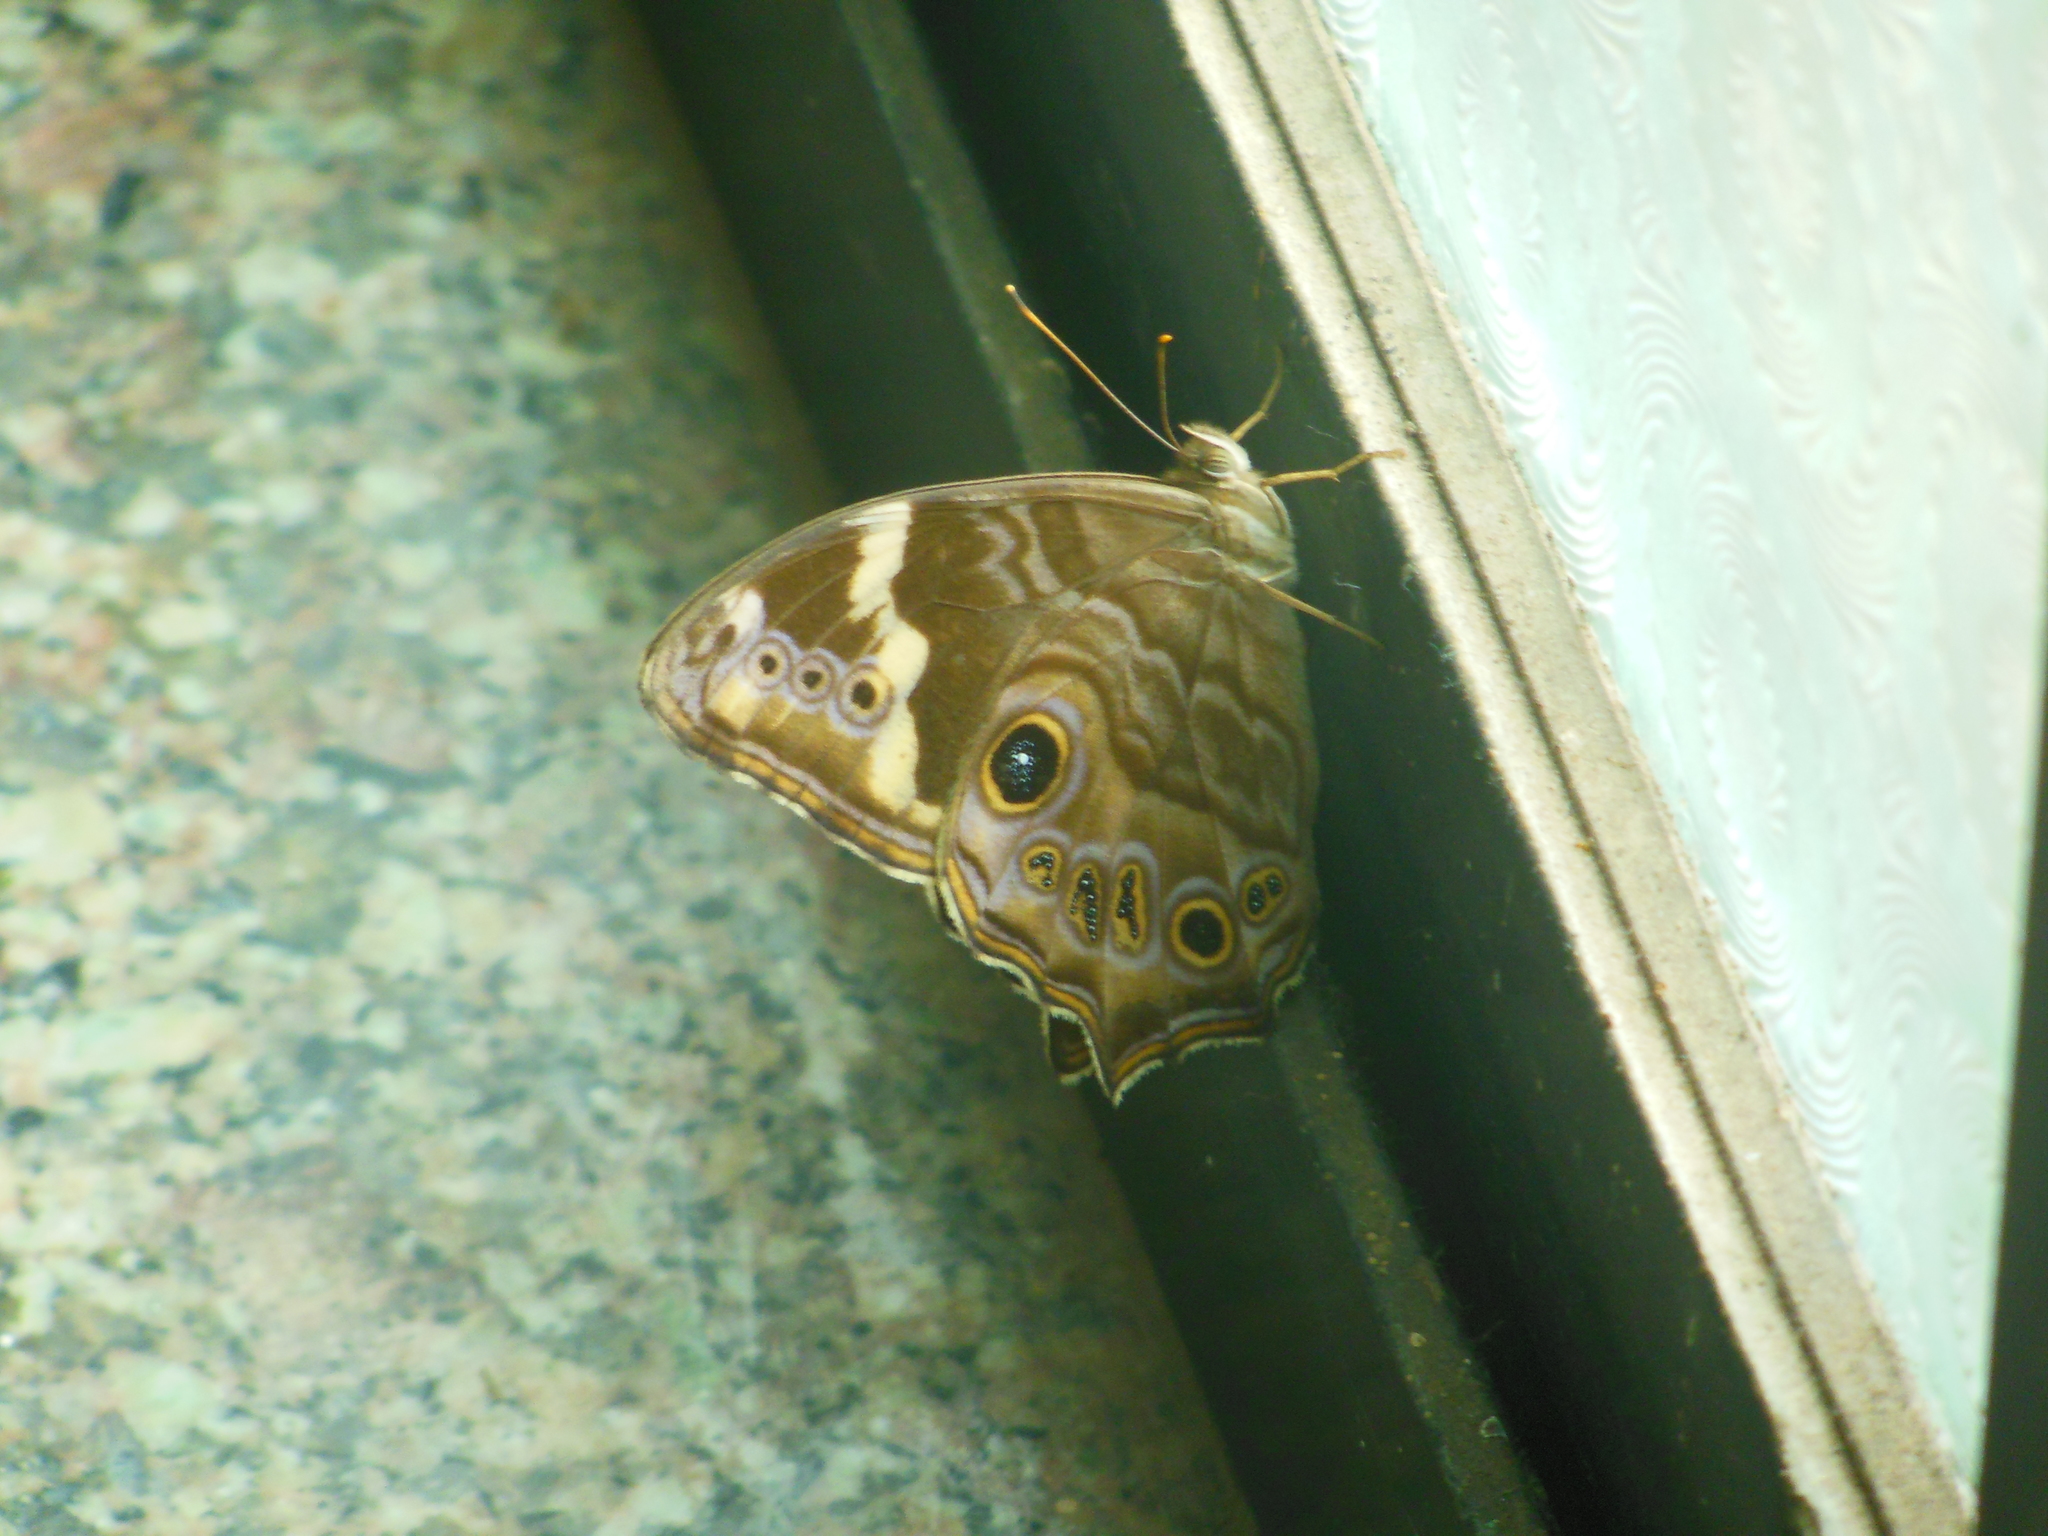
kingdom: Animalia
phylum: Arthropoda
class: Insecta
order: Lepidoptera
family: Nymphalidae
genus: Lethe
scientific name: Lethe rohria
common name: Common treebrown
